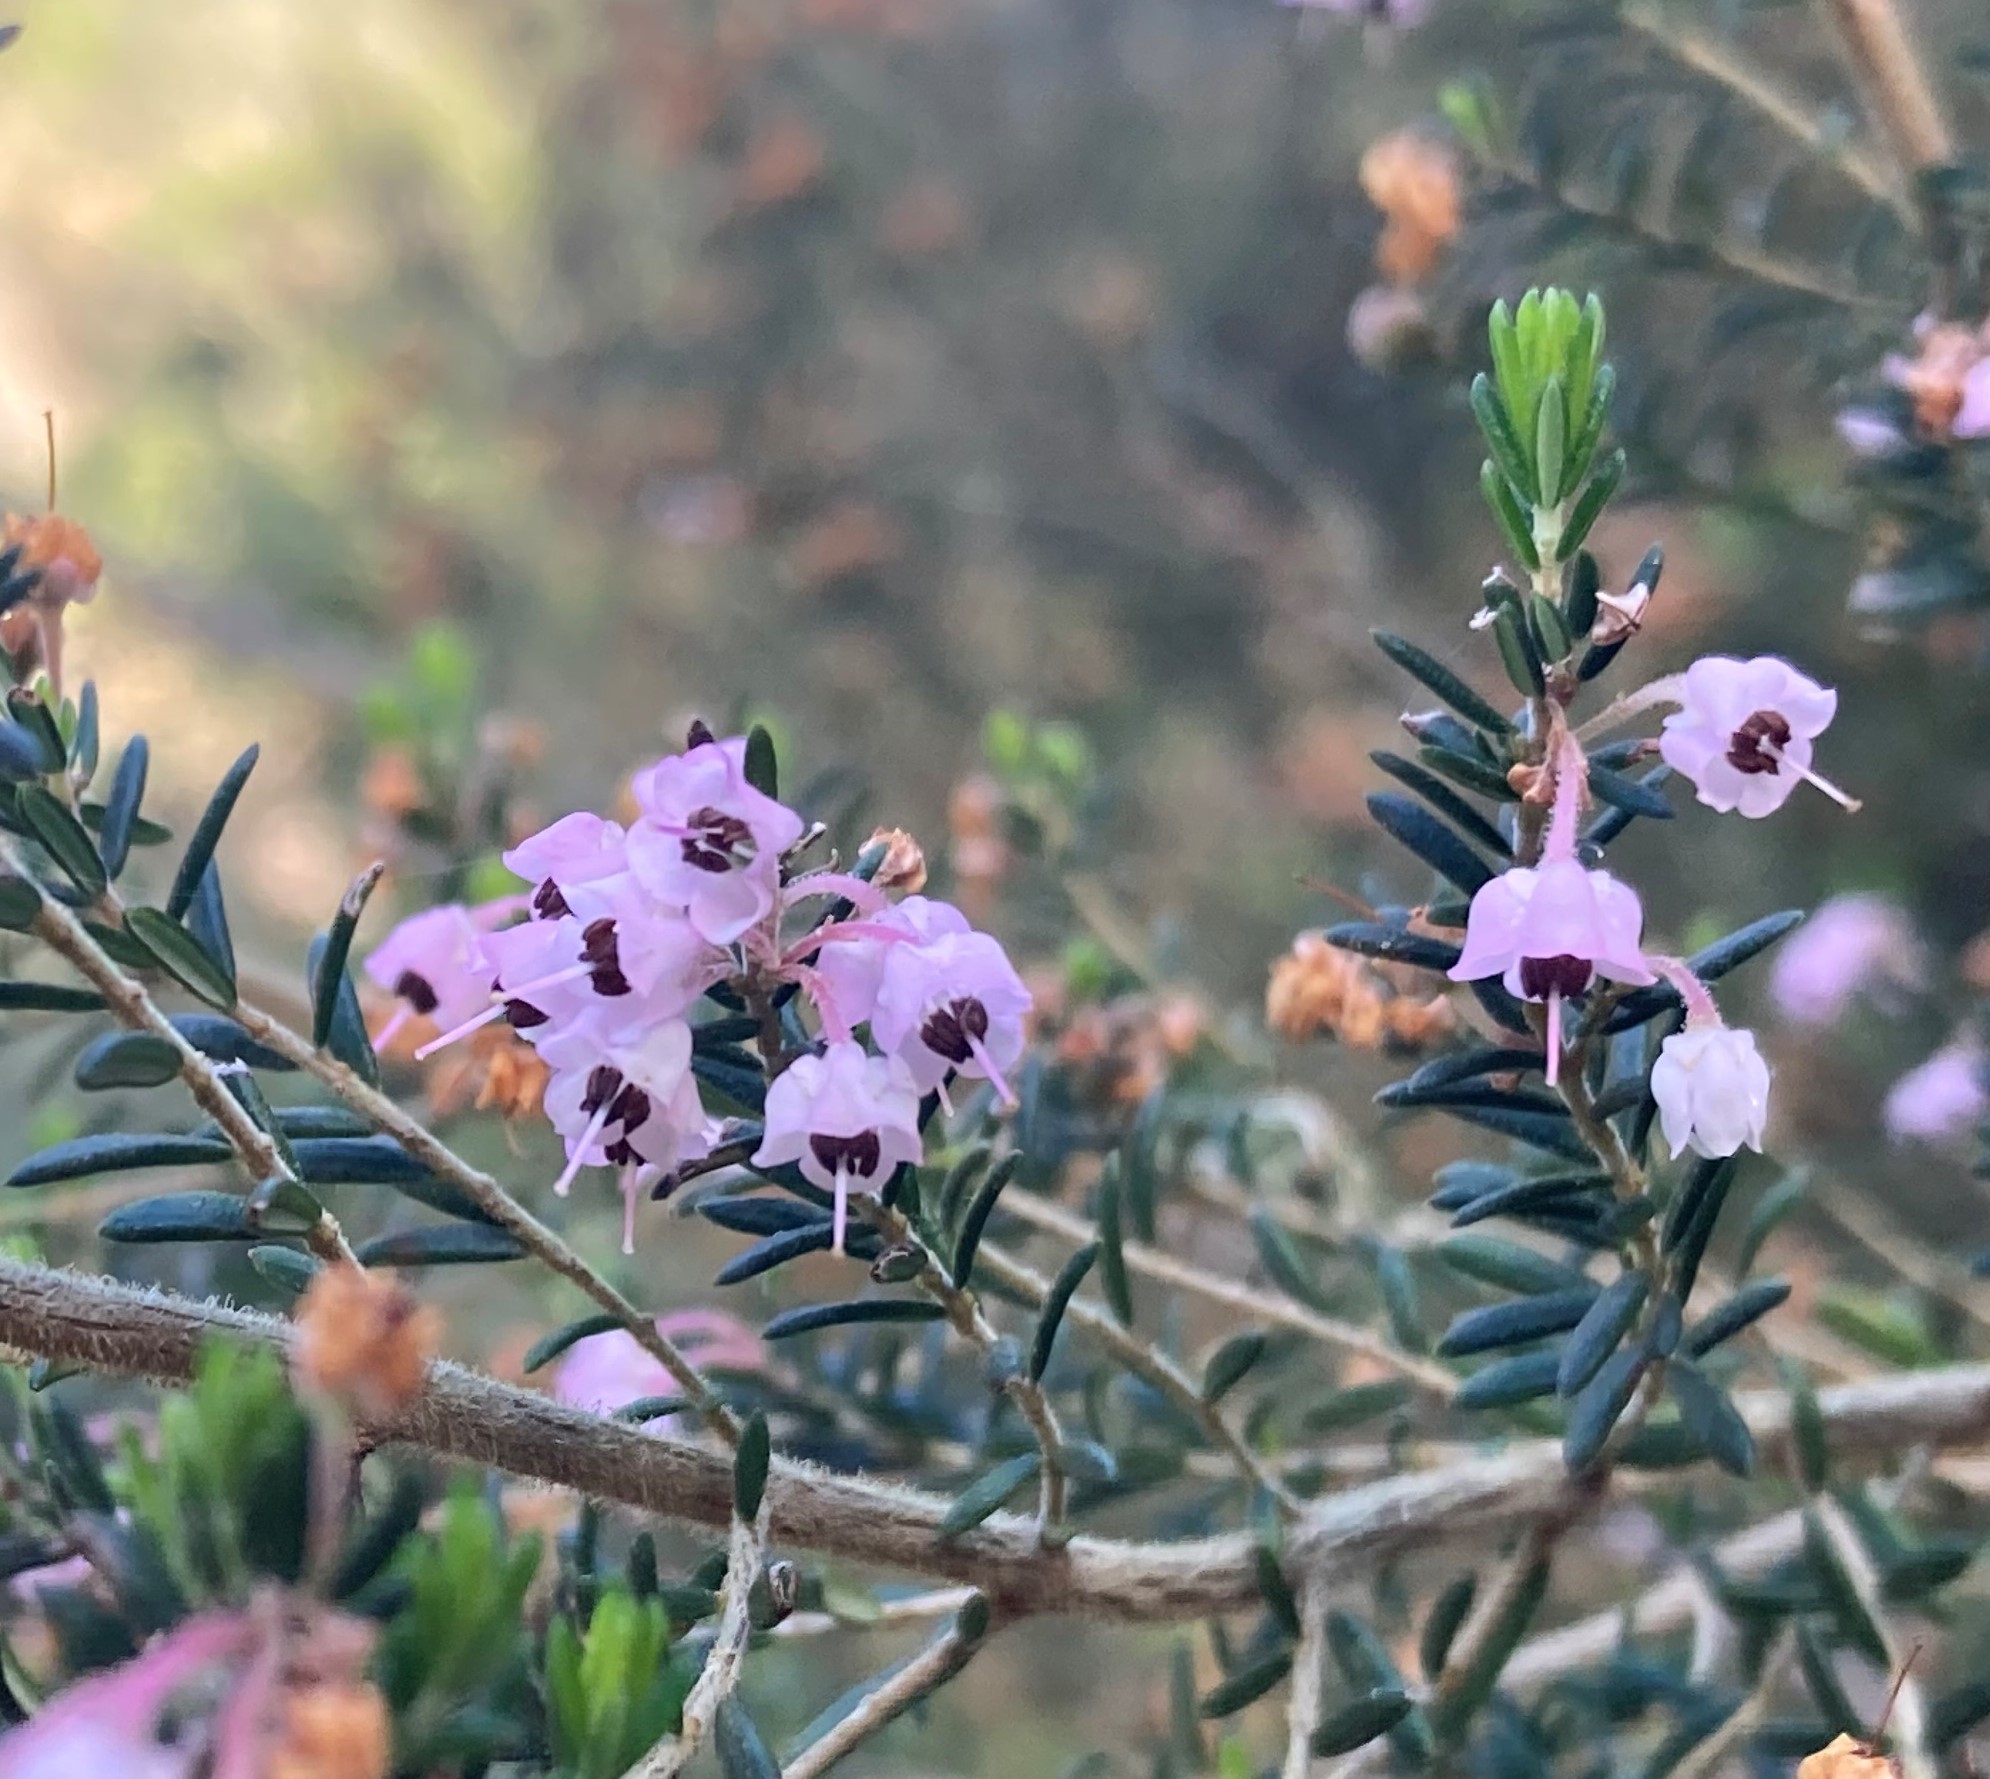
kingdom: Plantae
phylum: Tracheophyta
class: Magnoliopsida
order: Ericales
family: Ericaceae
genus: Erica
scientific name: Erica canaliculata
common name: Hairy grey heather
